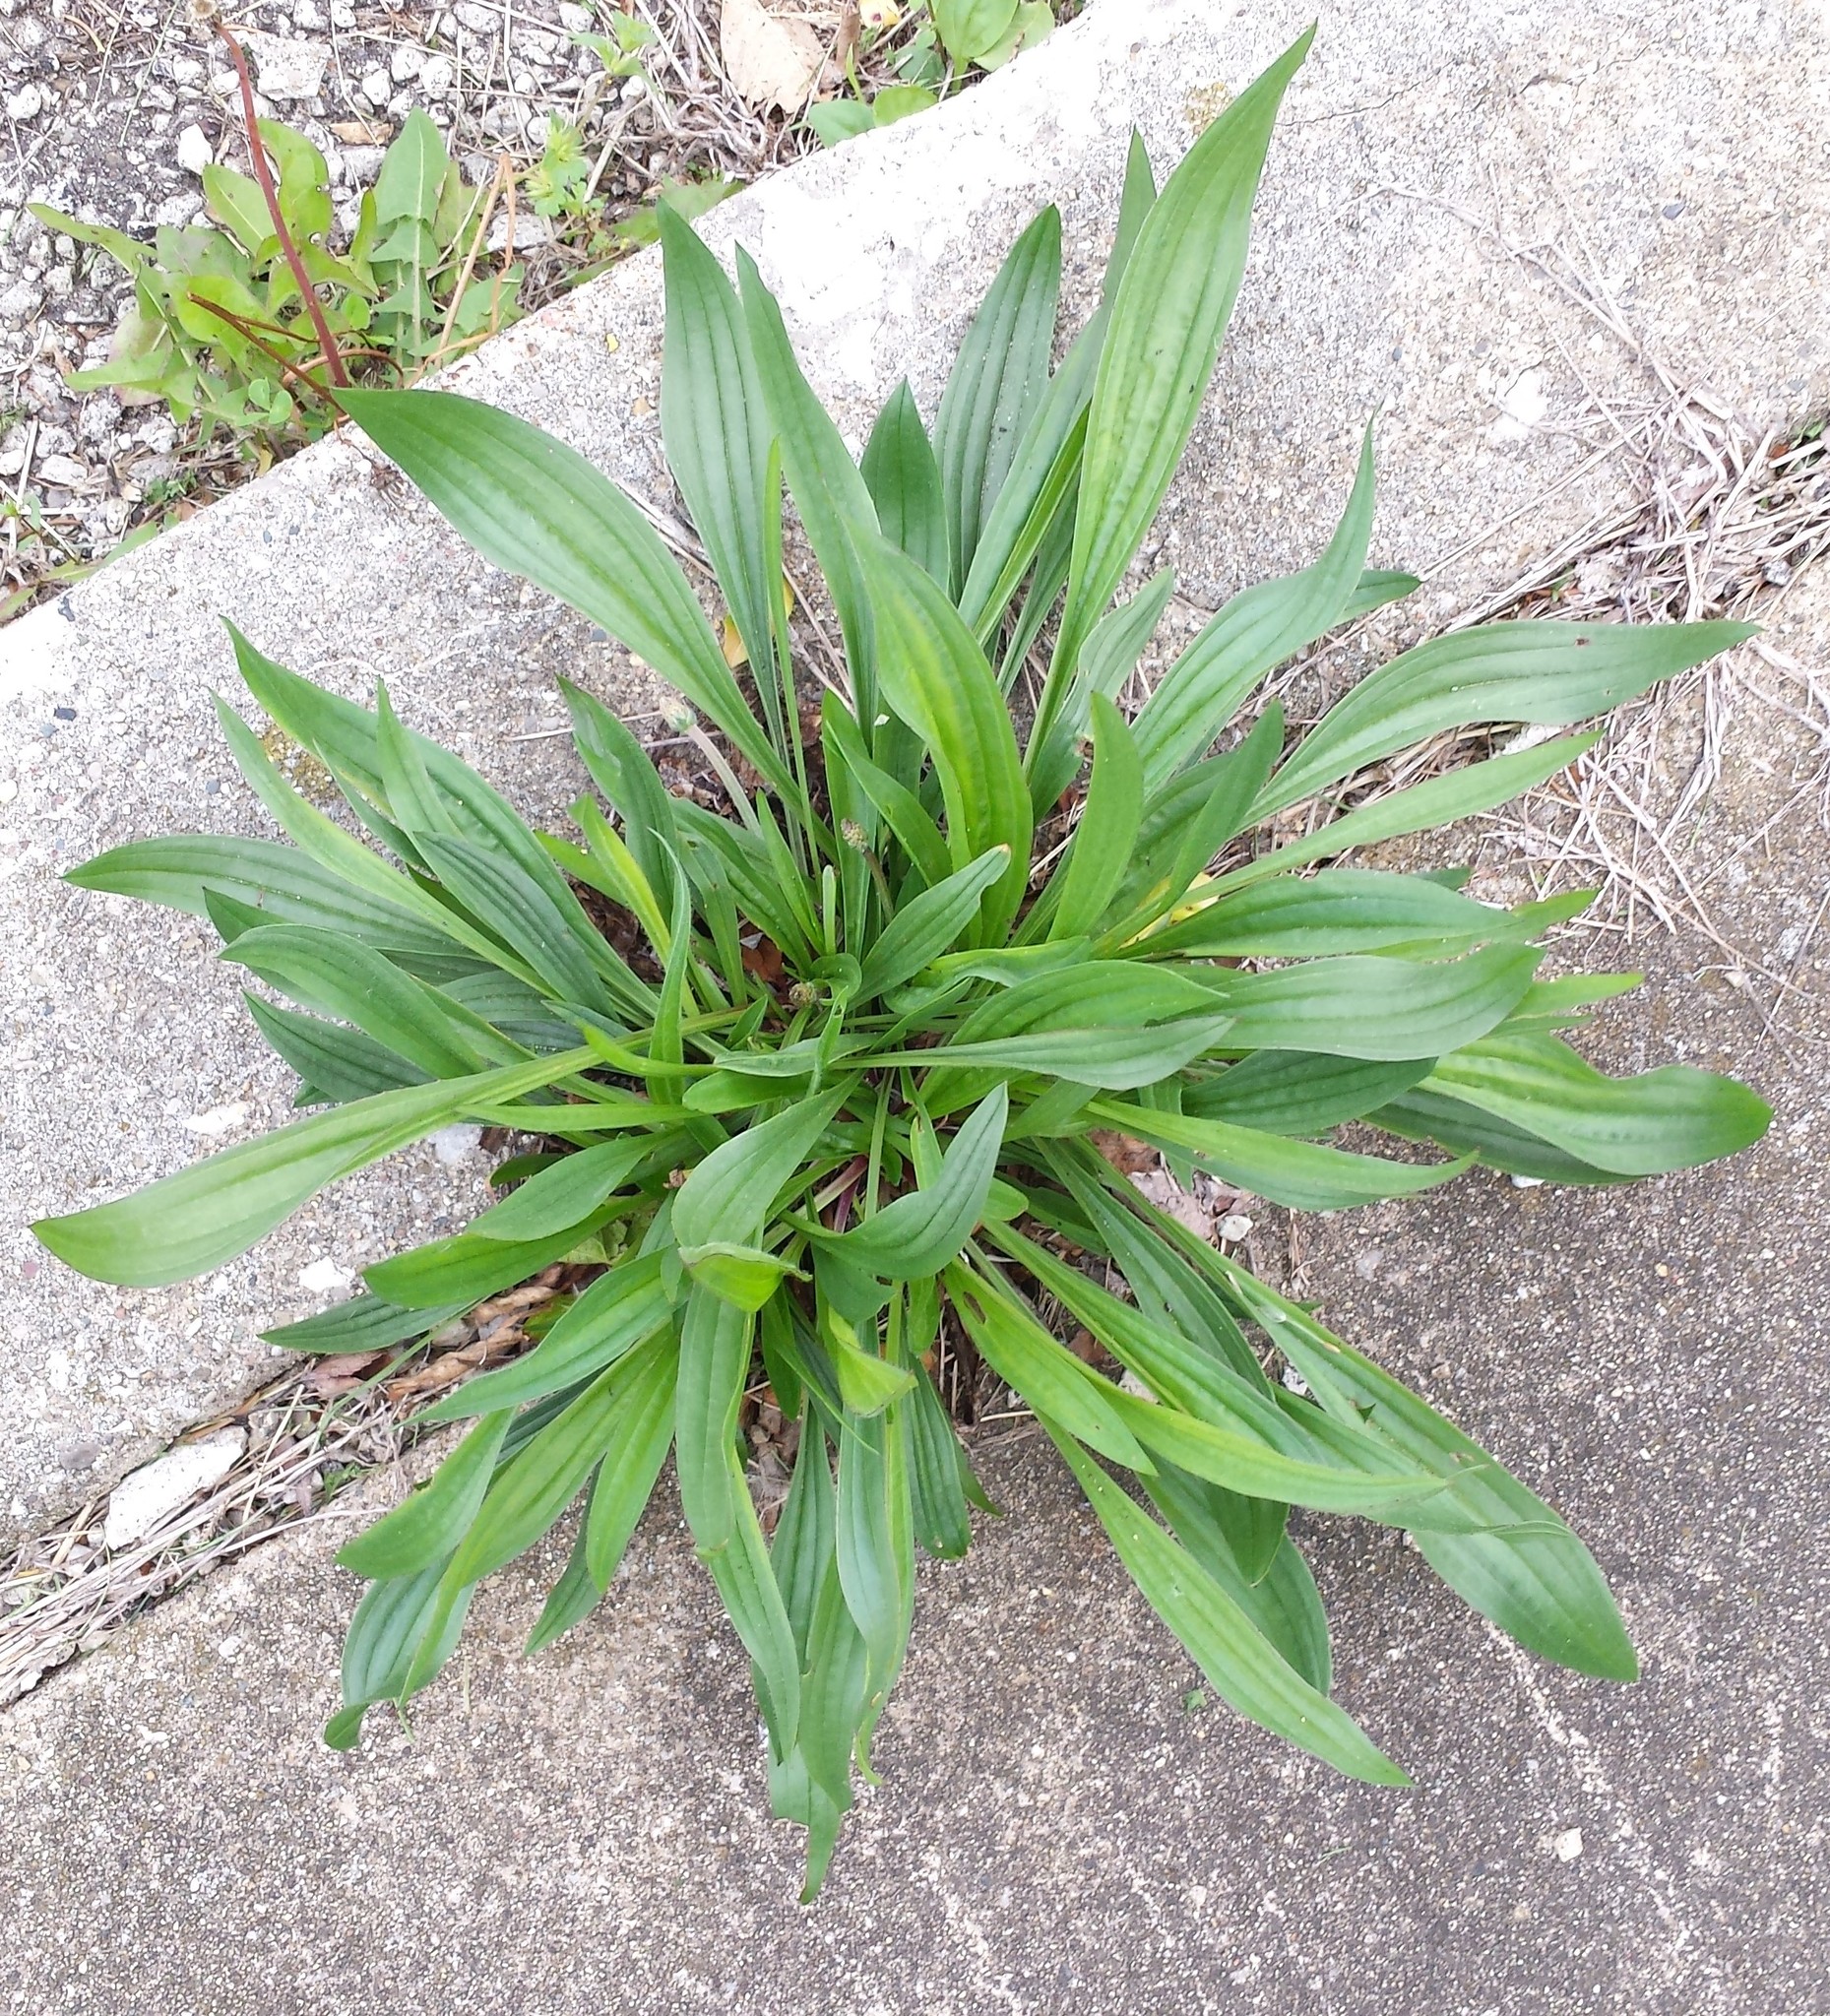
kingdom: Plantae
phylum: Tracheophyta
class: Magnoliopsida
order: Lamiales
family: Plantaginaceae
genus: Plantago
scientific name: Plantago lanceolata
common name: Ribwort plantain
